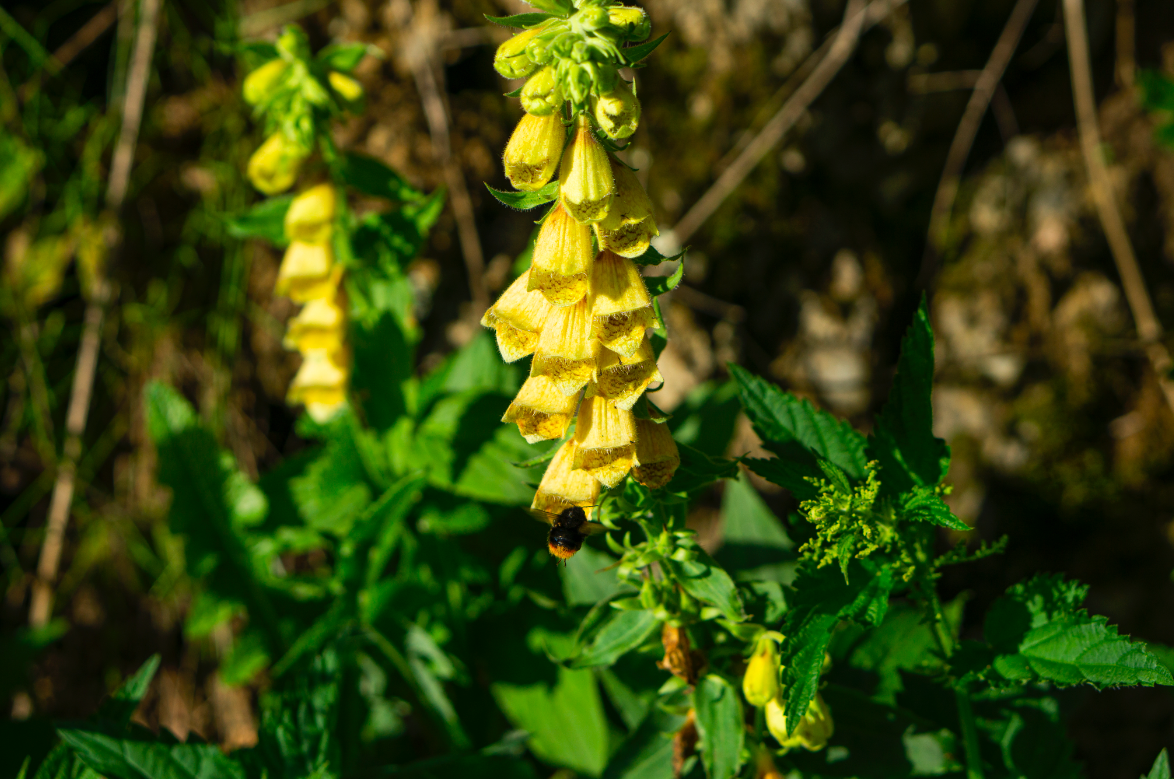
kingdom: Plantae
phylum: Tracheophyta
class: Magnoliopsida
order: Lamiales
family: Plantaginaceae
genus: Digitalis
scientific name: Digitalis grandiflora
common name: Yellow foxglove
